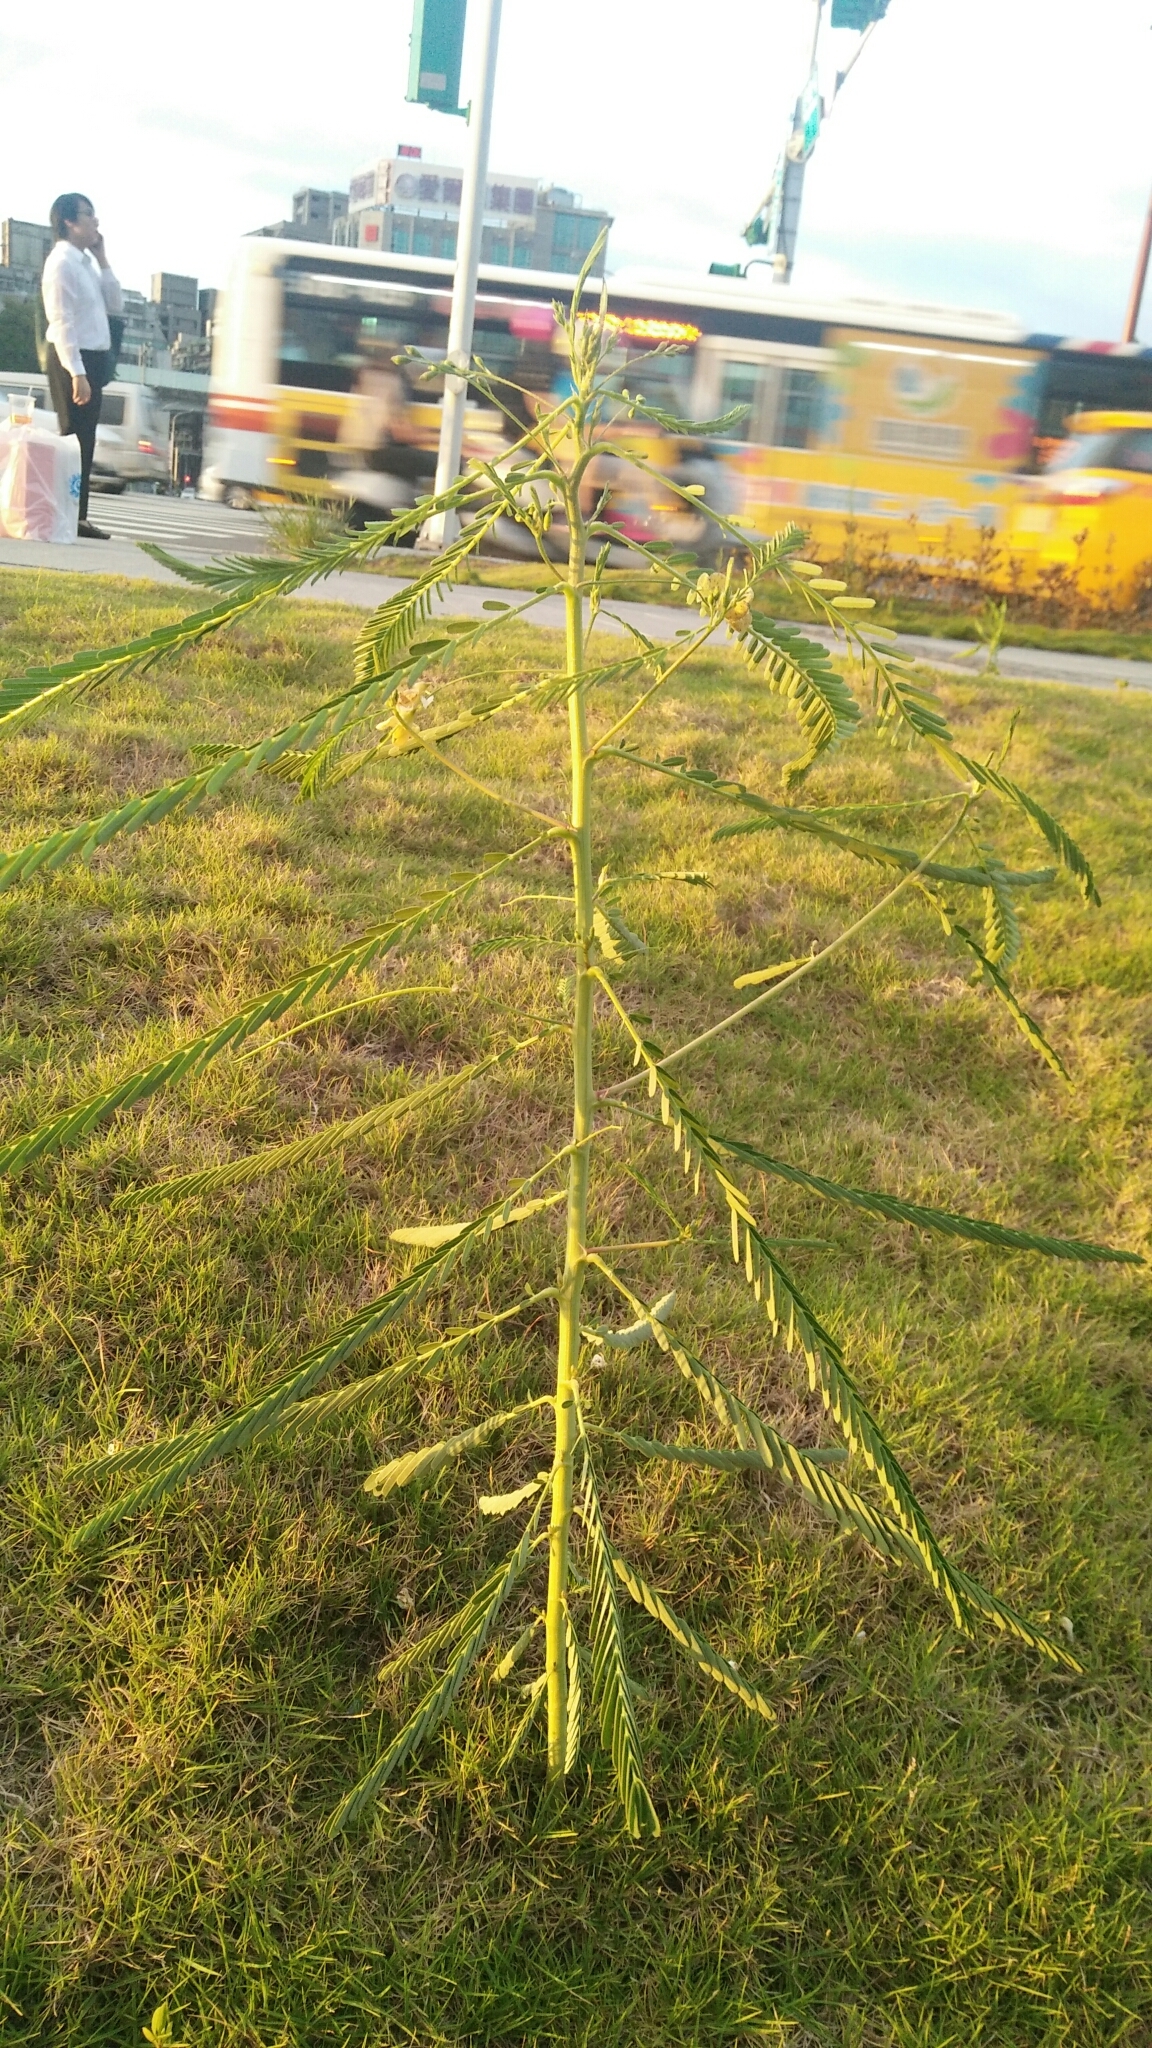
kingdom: Plantae
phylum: Tracheophyta
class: Magnoliopsida
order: Fabales
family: Fabaceae
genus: Sesbania
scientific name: Sesbania cannabina
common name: Canicha
